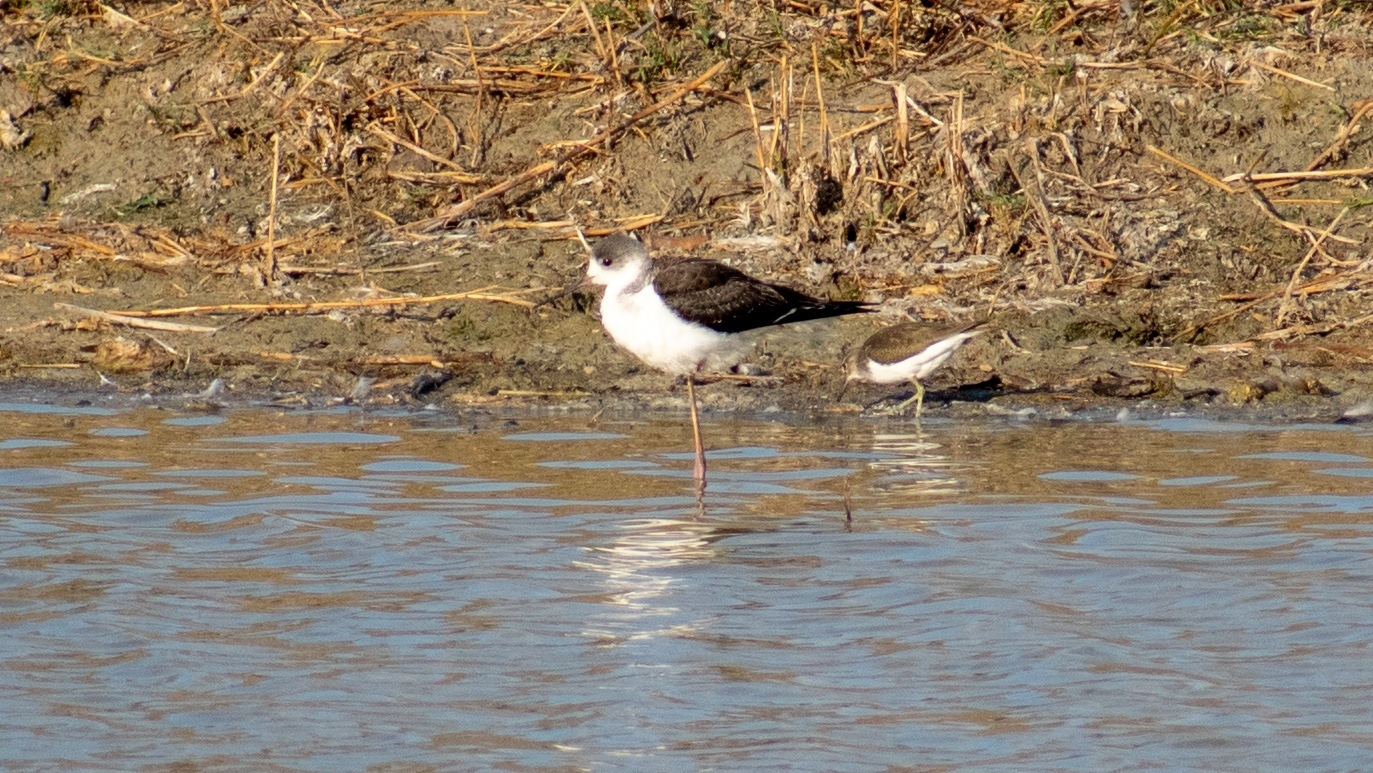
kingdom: Animalia
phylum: Chordata
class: Aves
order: Charadriiformes
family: Recurvirostridae
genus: Himantopus
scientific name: Himantopus himantopus
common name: Black-winged stilt
